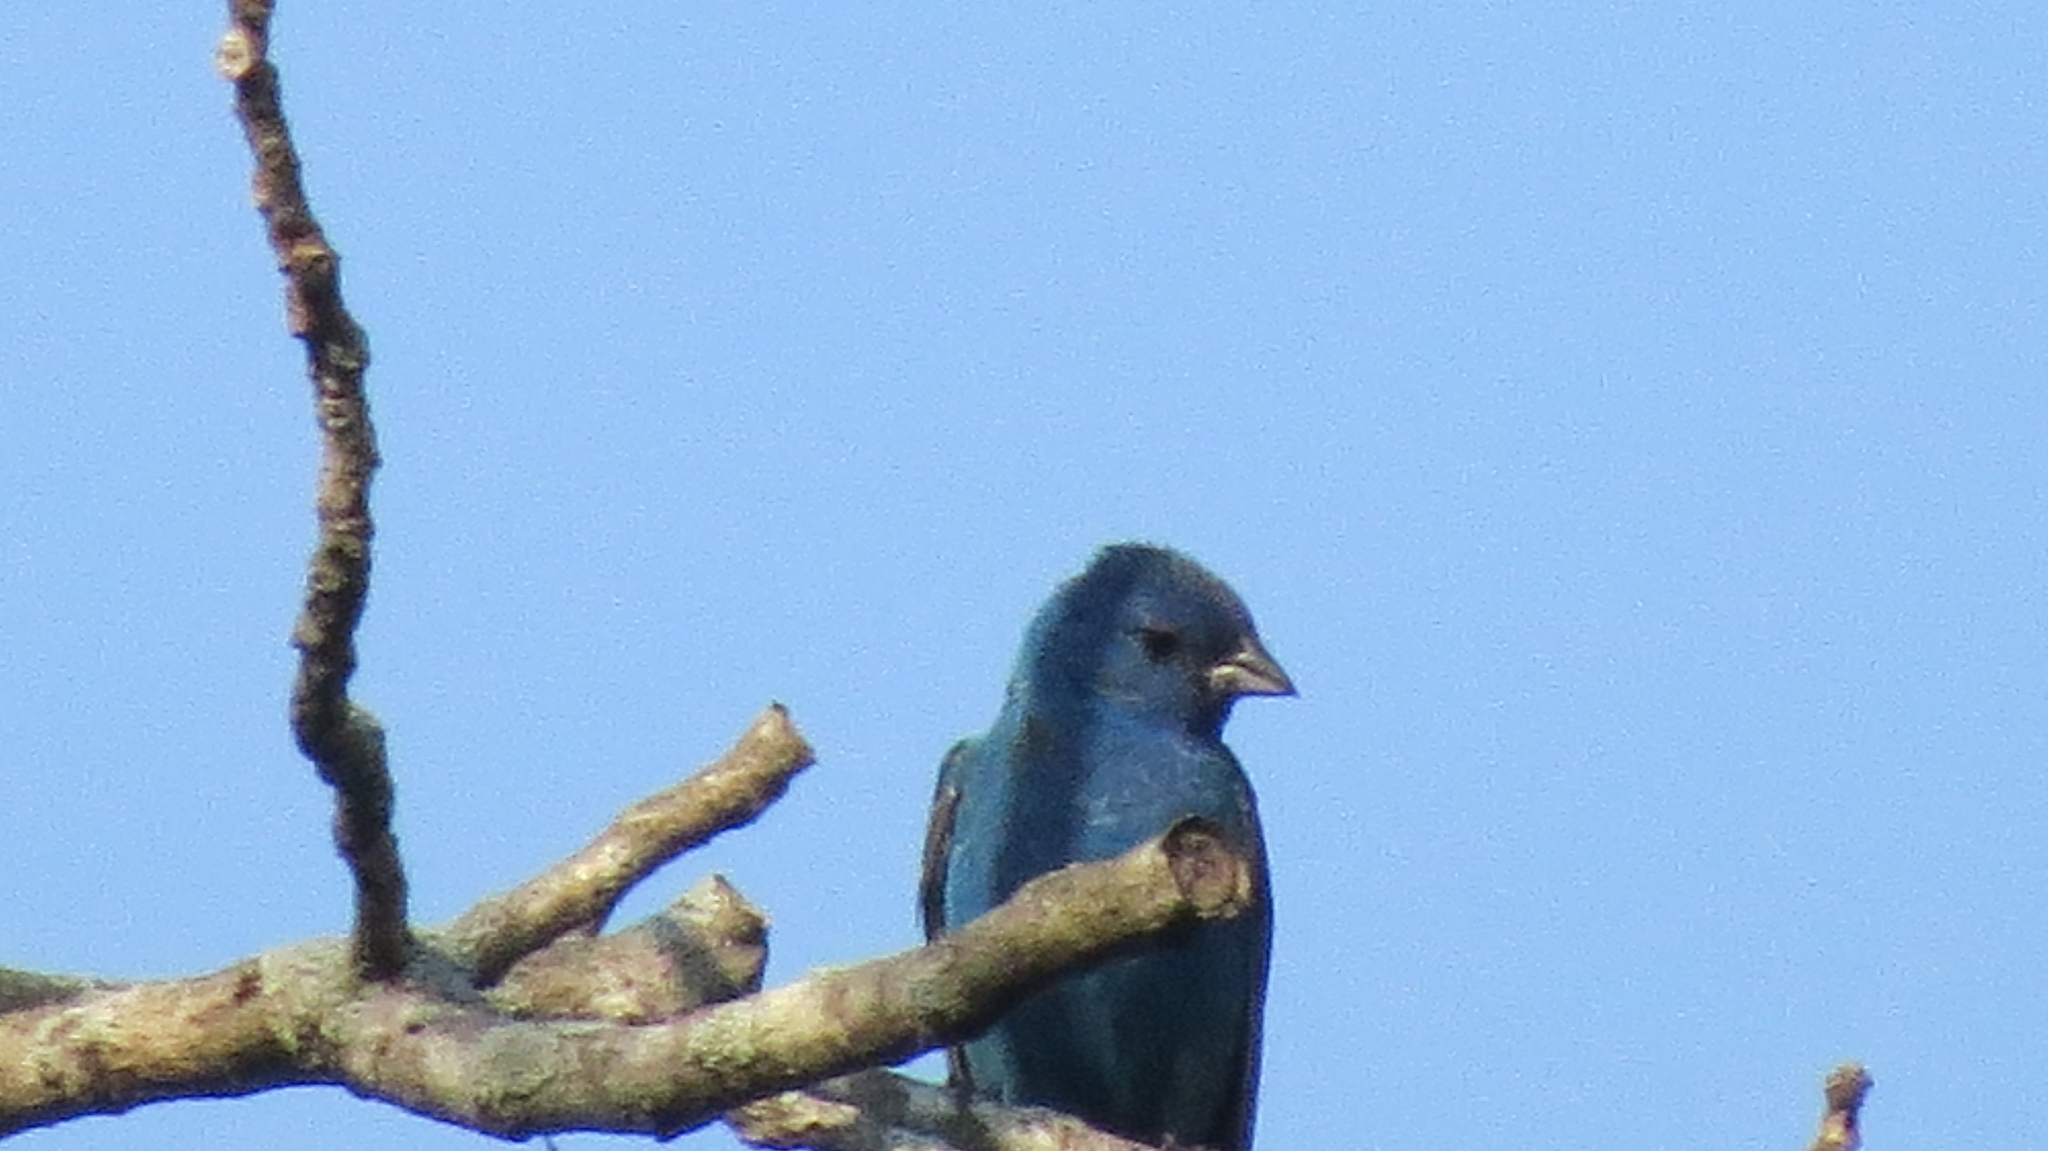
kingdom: Animalia
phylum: Chordata
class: Aves
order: Passeriformes
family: Cardinalidae
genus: Passerina
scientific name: Passerina cyanea
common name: Indigo bunting
